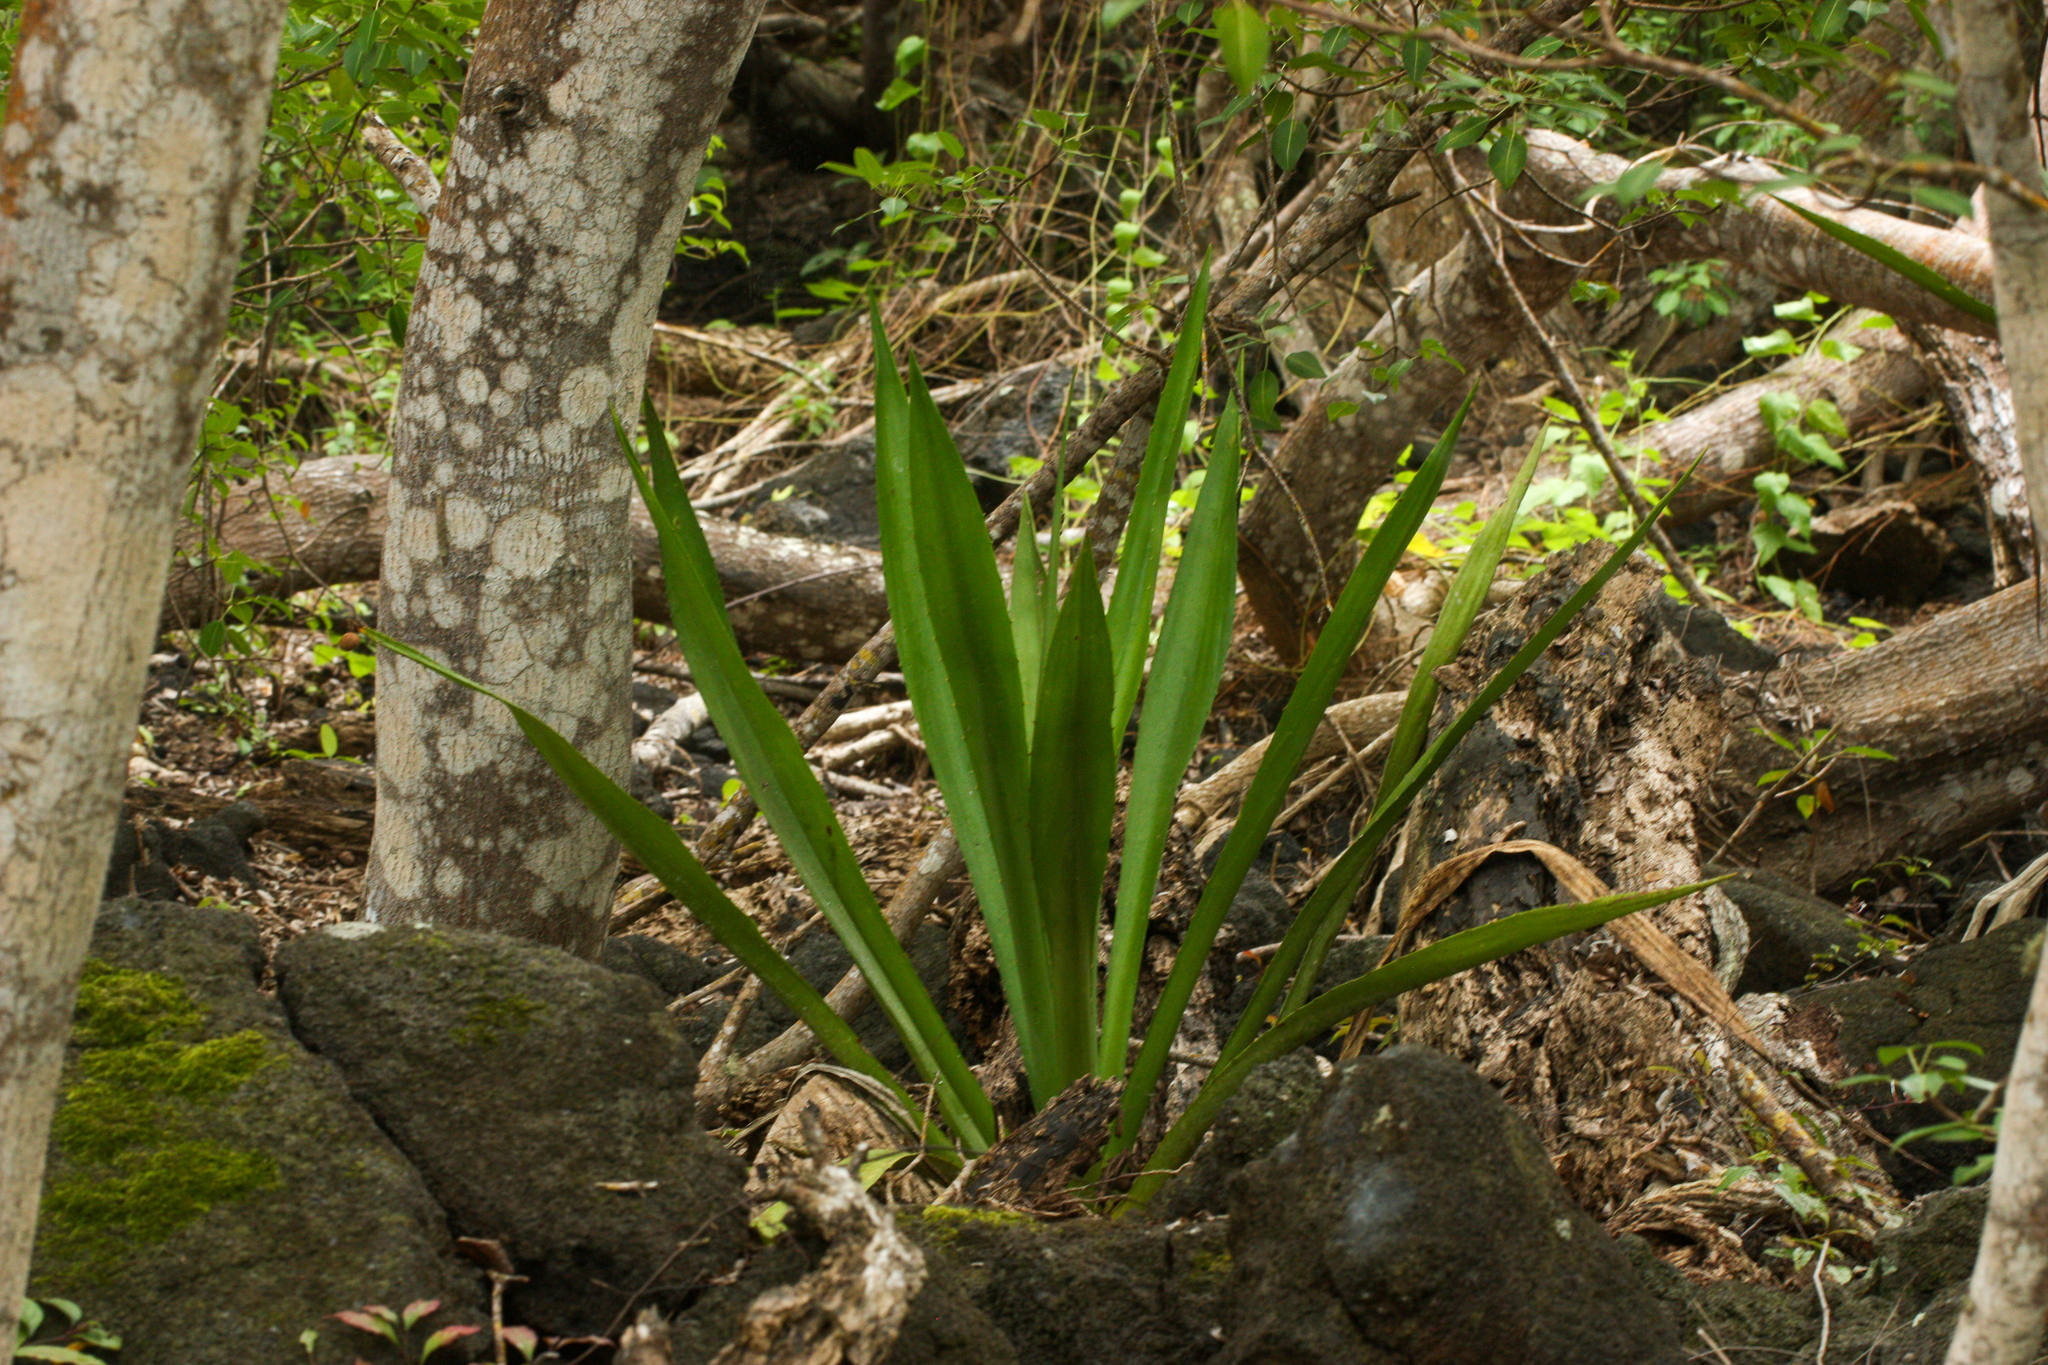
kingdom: Plantae
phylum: Tracheophyta
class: Liliopsida
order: Asparagales
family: Asparagaceae
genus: Furcraea
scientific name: Furcraea hexapetala
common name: Cuban-hemp
